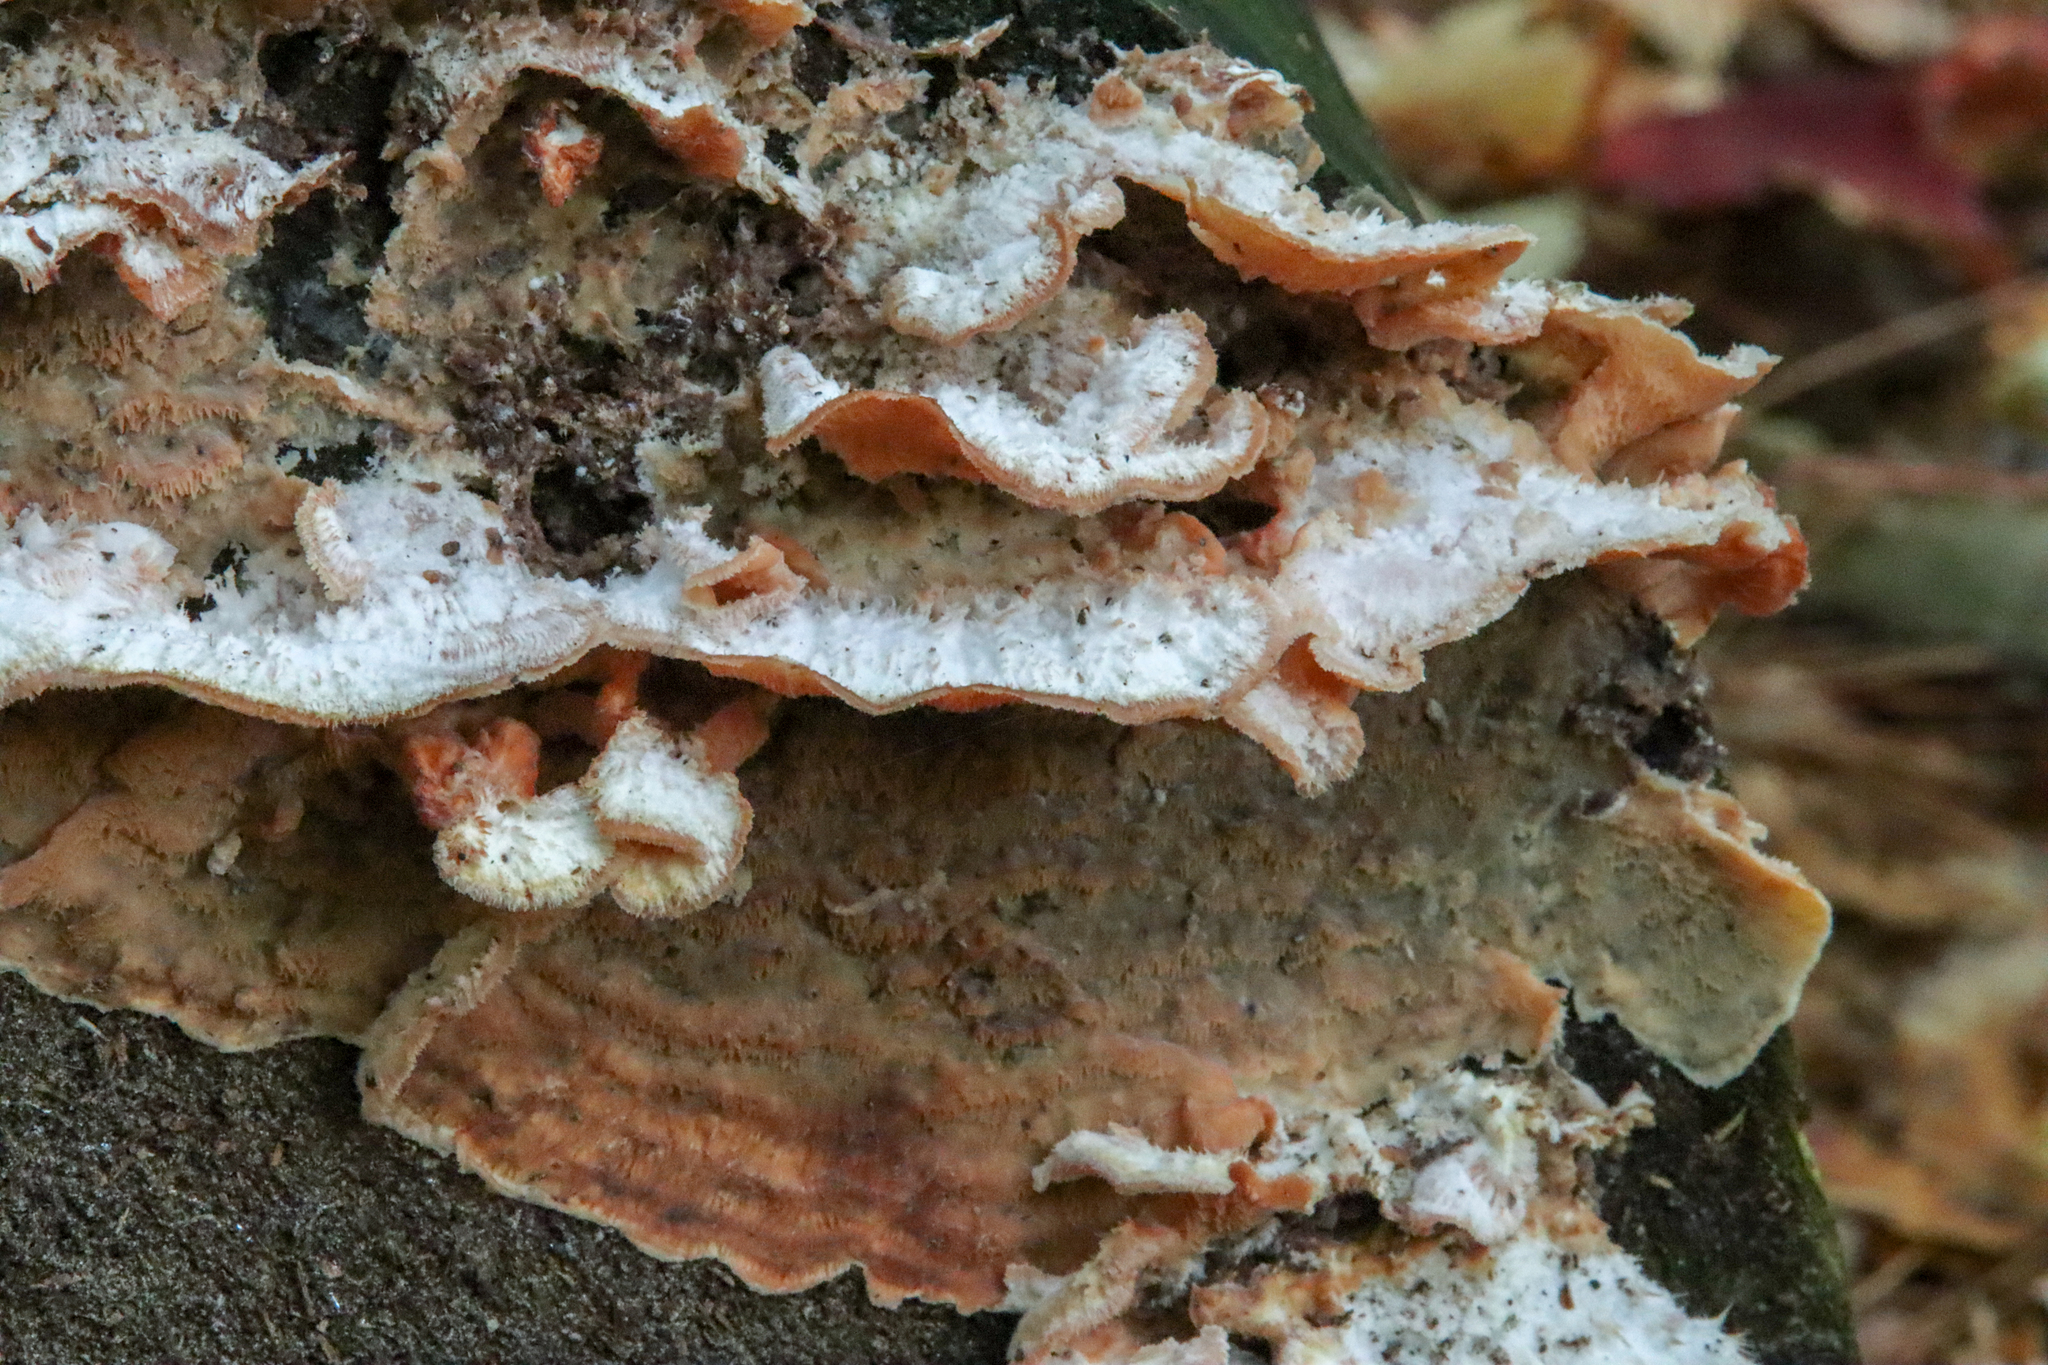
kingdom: Fungi
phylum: Basidiomycota
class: Agaricomycetes
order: Polyporales
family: Meruliaceae
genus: Phlebia
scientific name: Phlebia tremellosa
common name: Jelly rot
